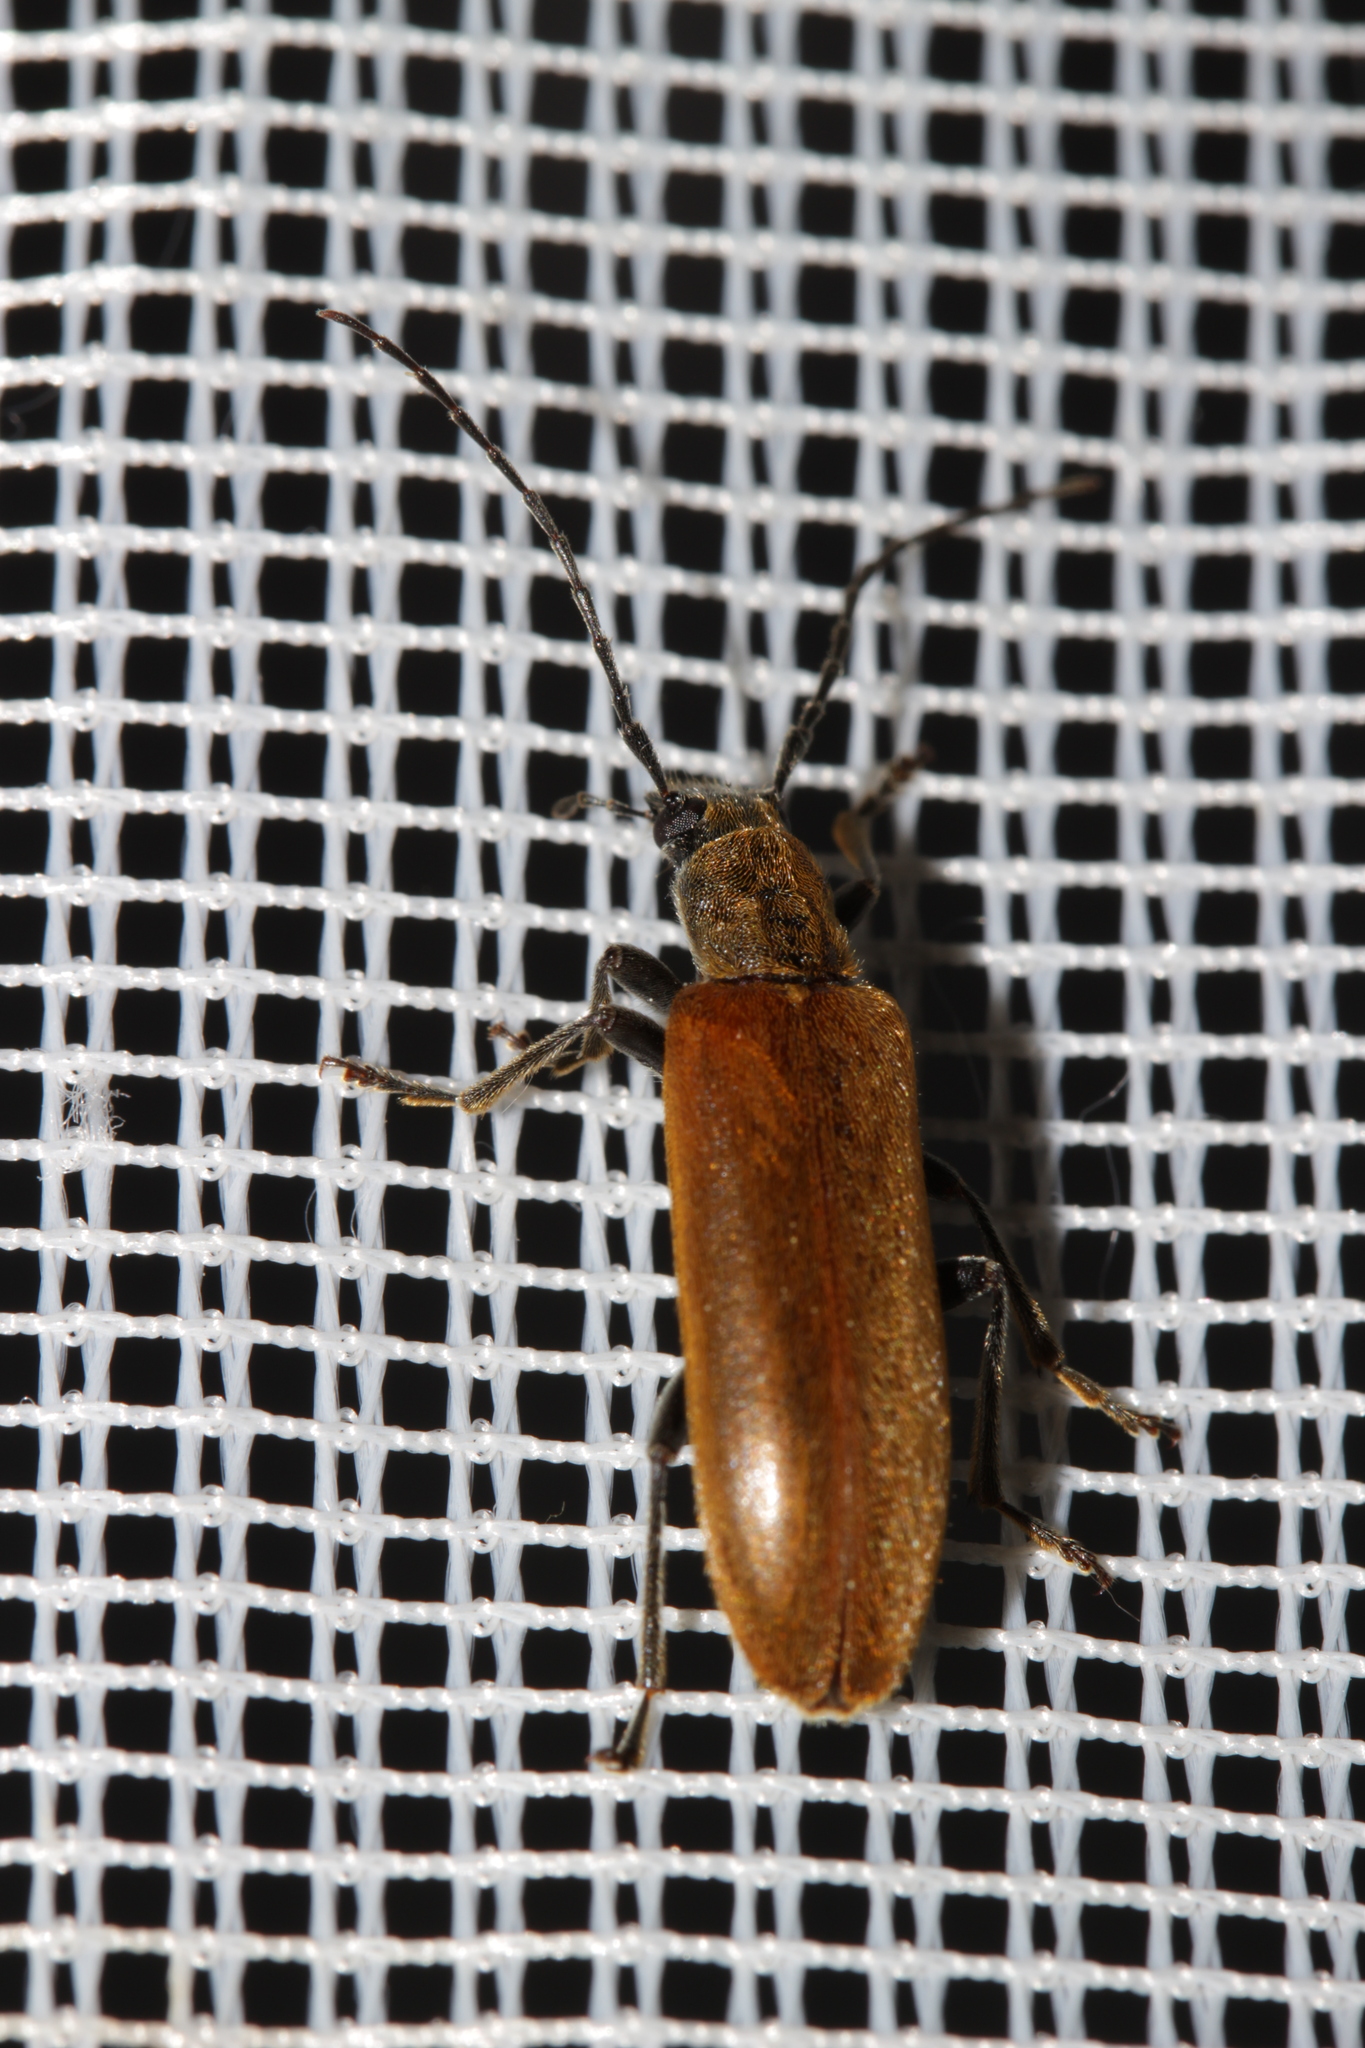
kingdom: Animalia
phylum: Arthropoda
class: Insecta
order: Coleoptera
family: Oedemeridae
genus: Sparedrus
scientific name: Sparedrus testaceus
